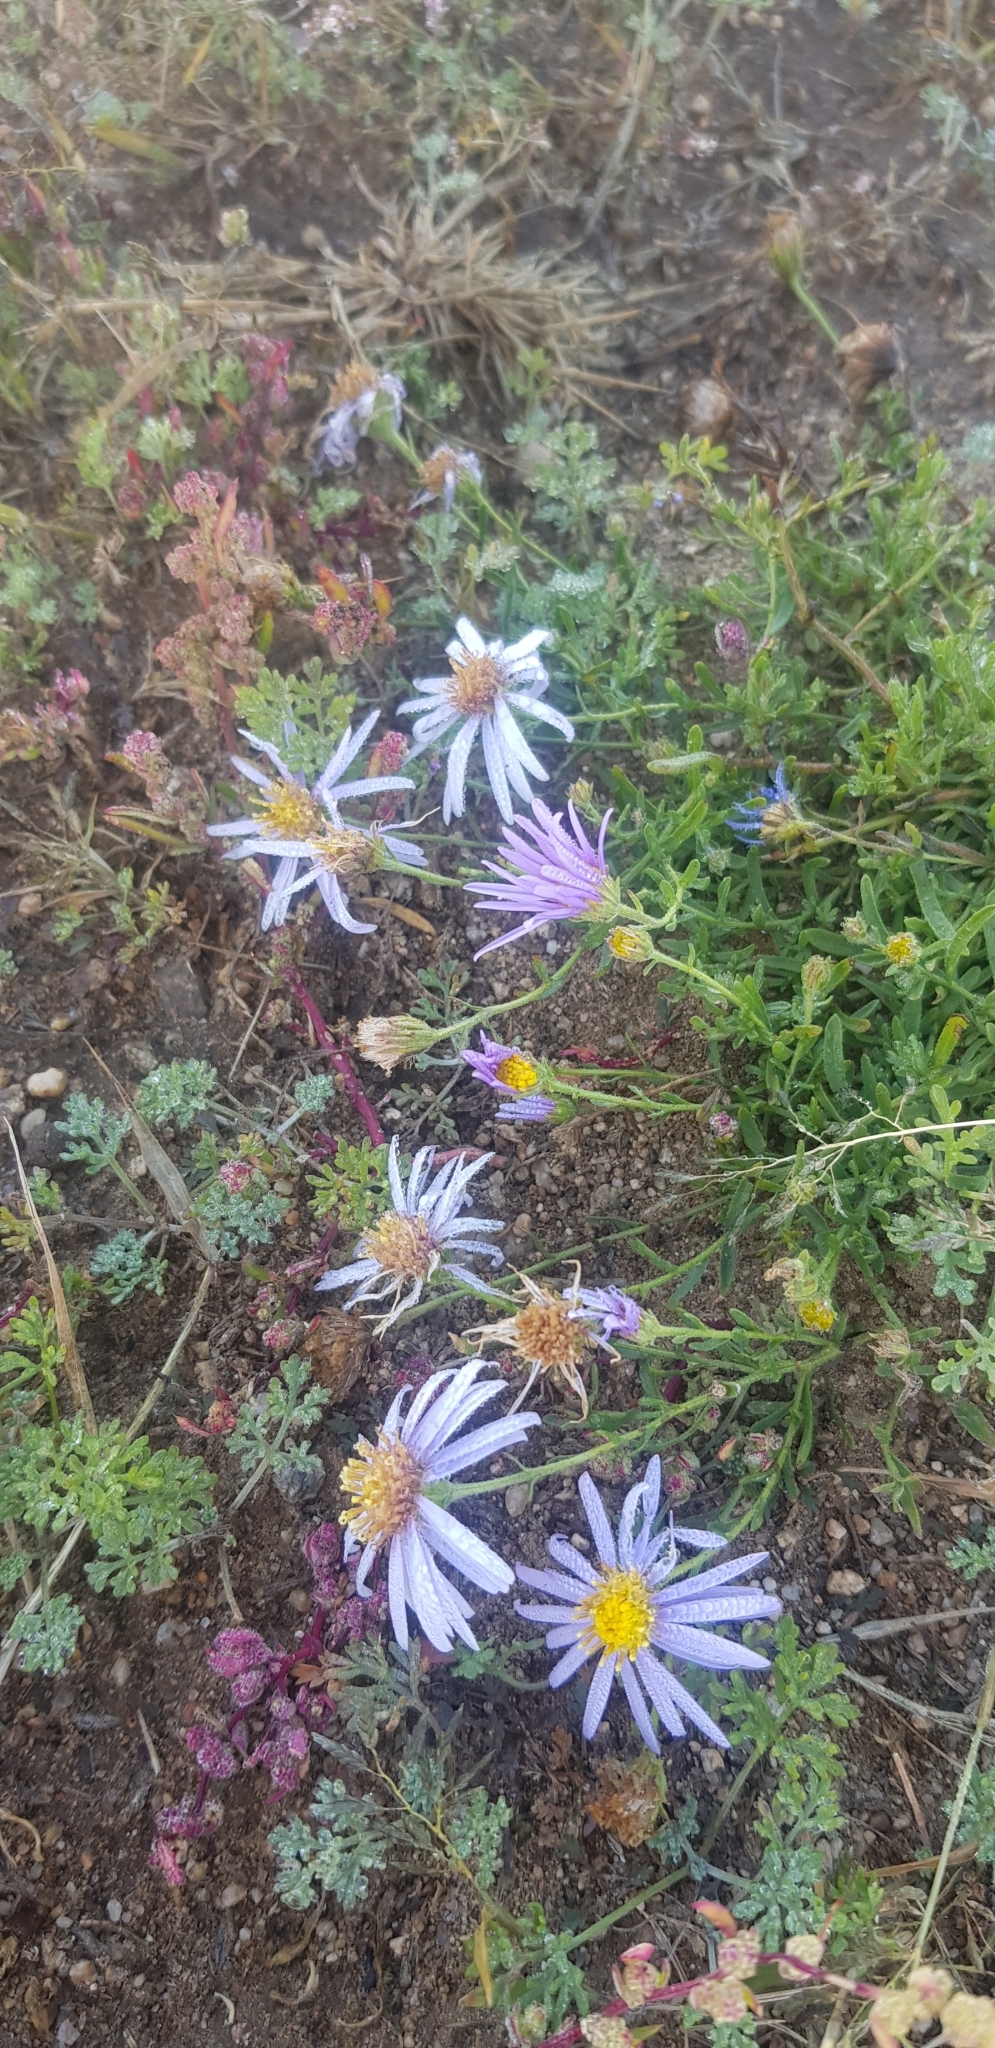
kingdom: Plantae
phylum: Tracheophyta
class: Magnoliopsida
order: Asterales
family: Asteraceae
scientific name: Asteraceae
